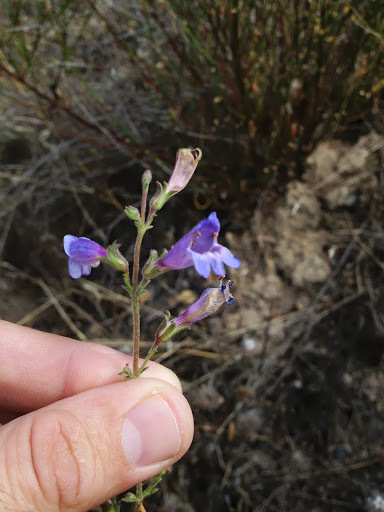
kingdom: Plantae
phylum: Tracheophyta
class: Magnoliopsida
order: Lamiales
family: Plantaginaceae
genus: Penstemon
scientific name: Penstemon roezlii
